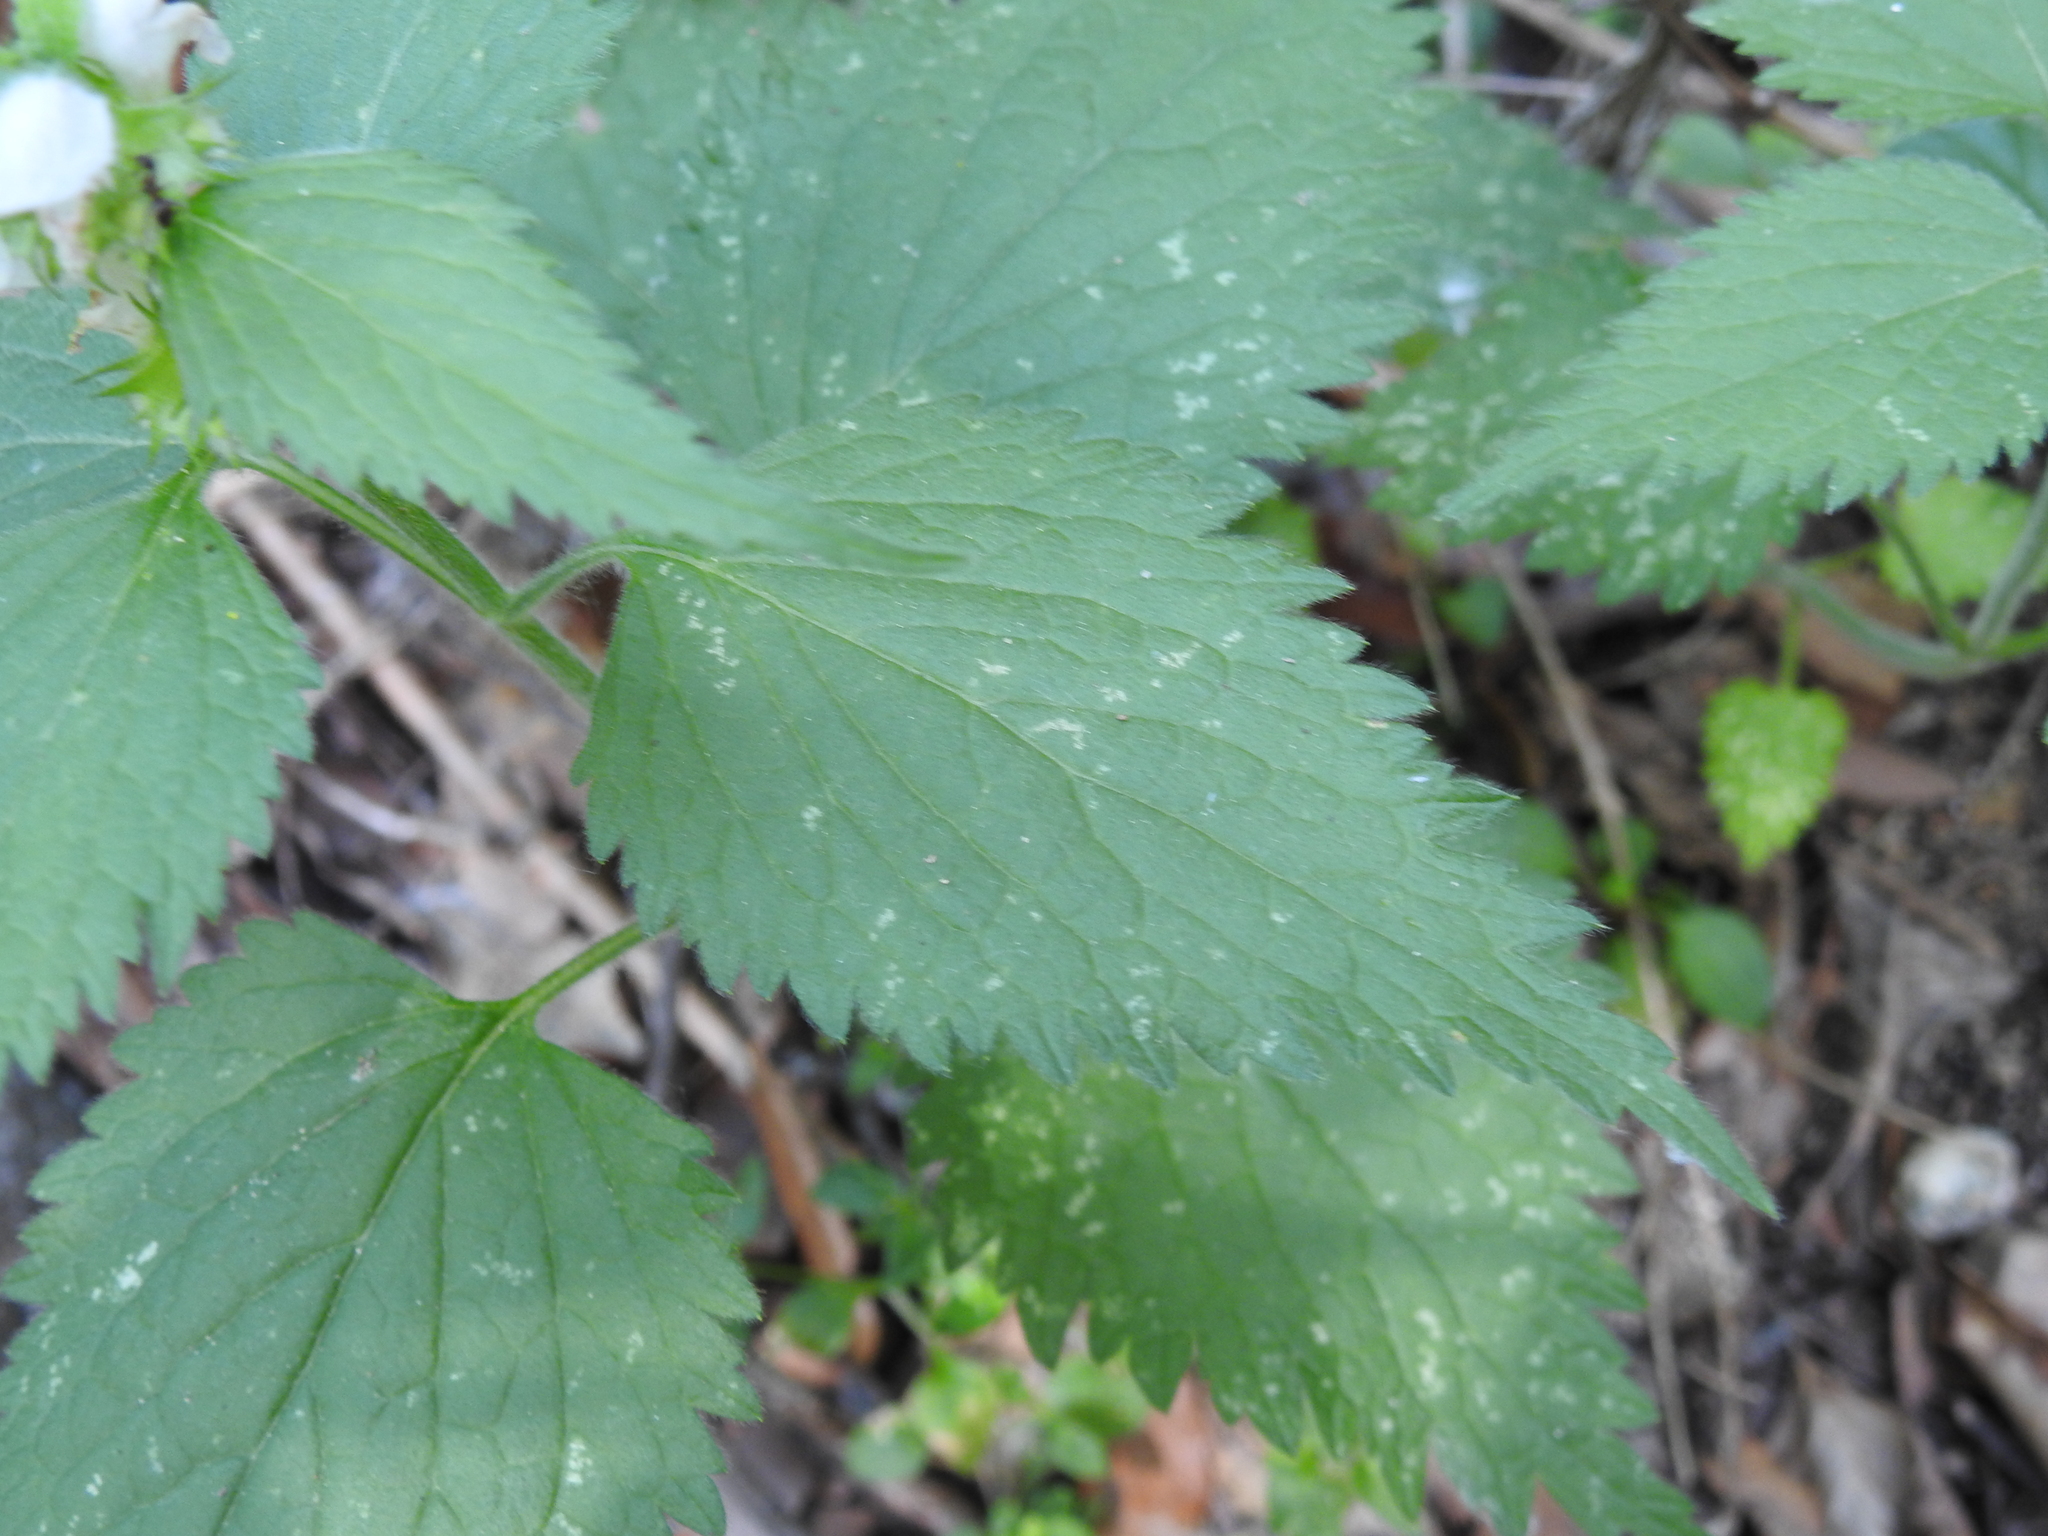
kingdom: Plantae
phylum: Tracheophyta
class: Magnoliopsida
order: Lamiales
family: Lamiaceae
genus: Lamium
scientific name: Lamium flexuosum
